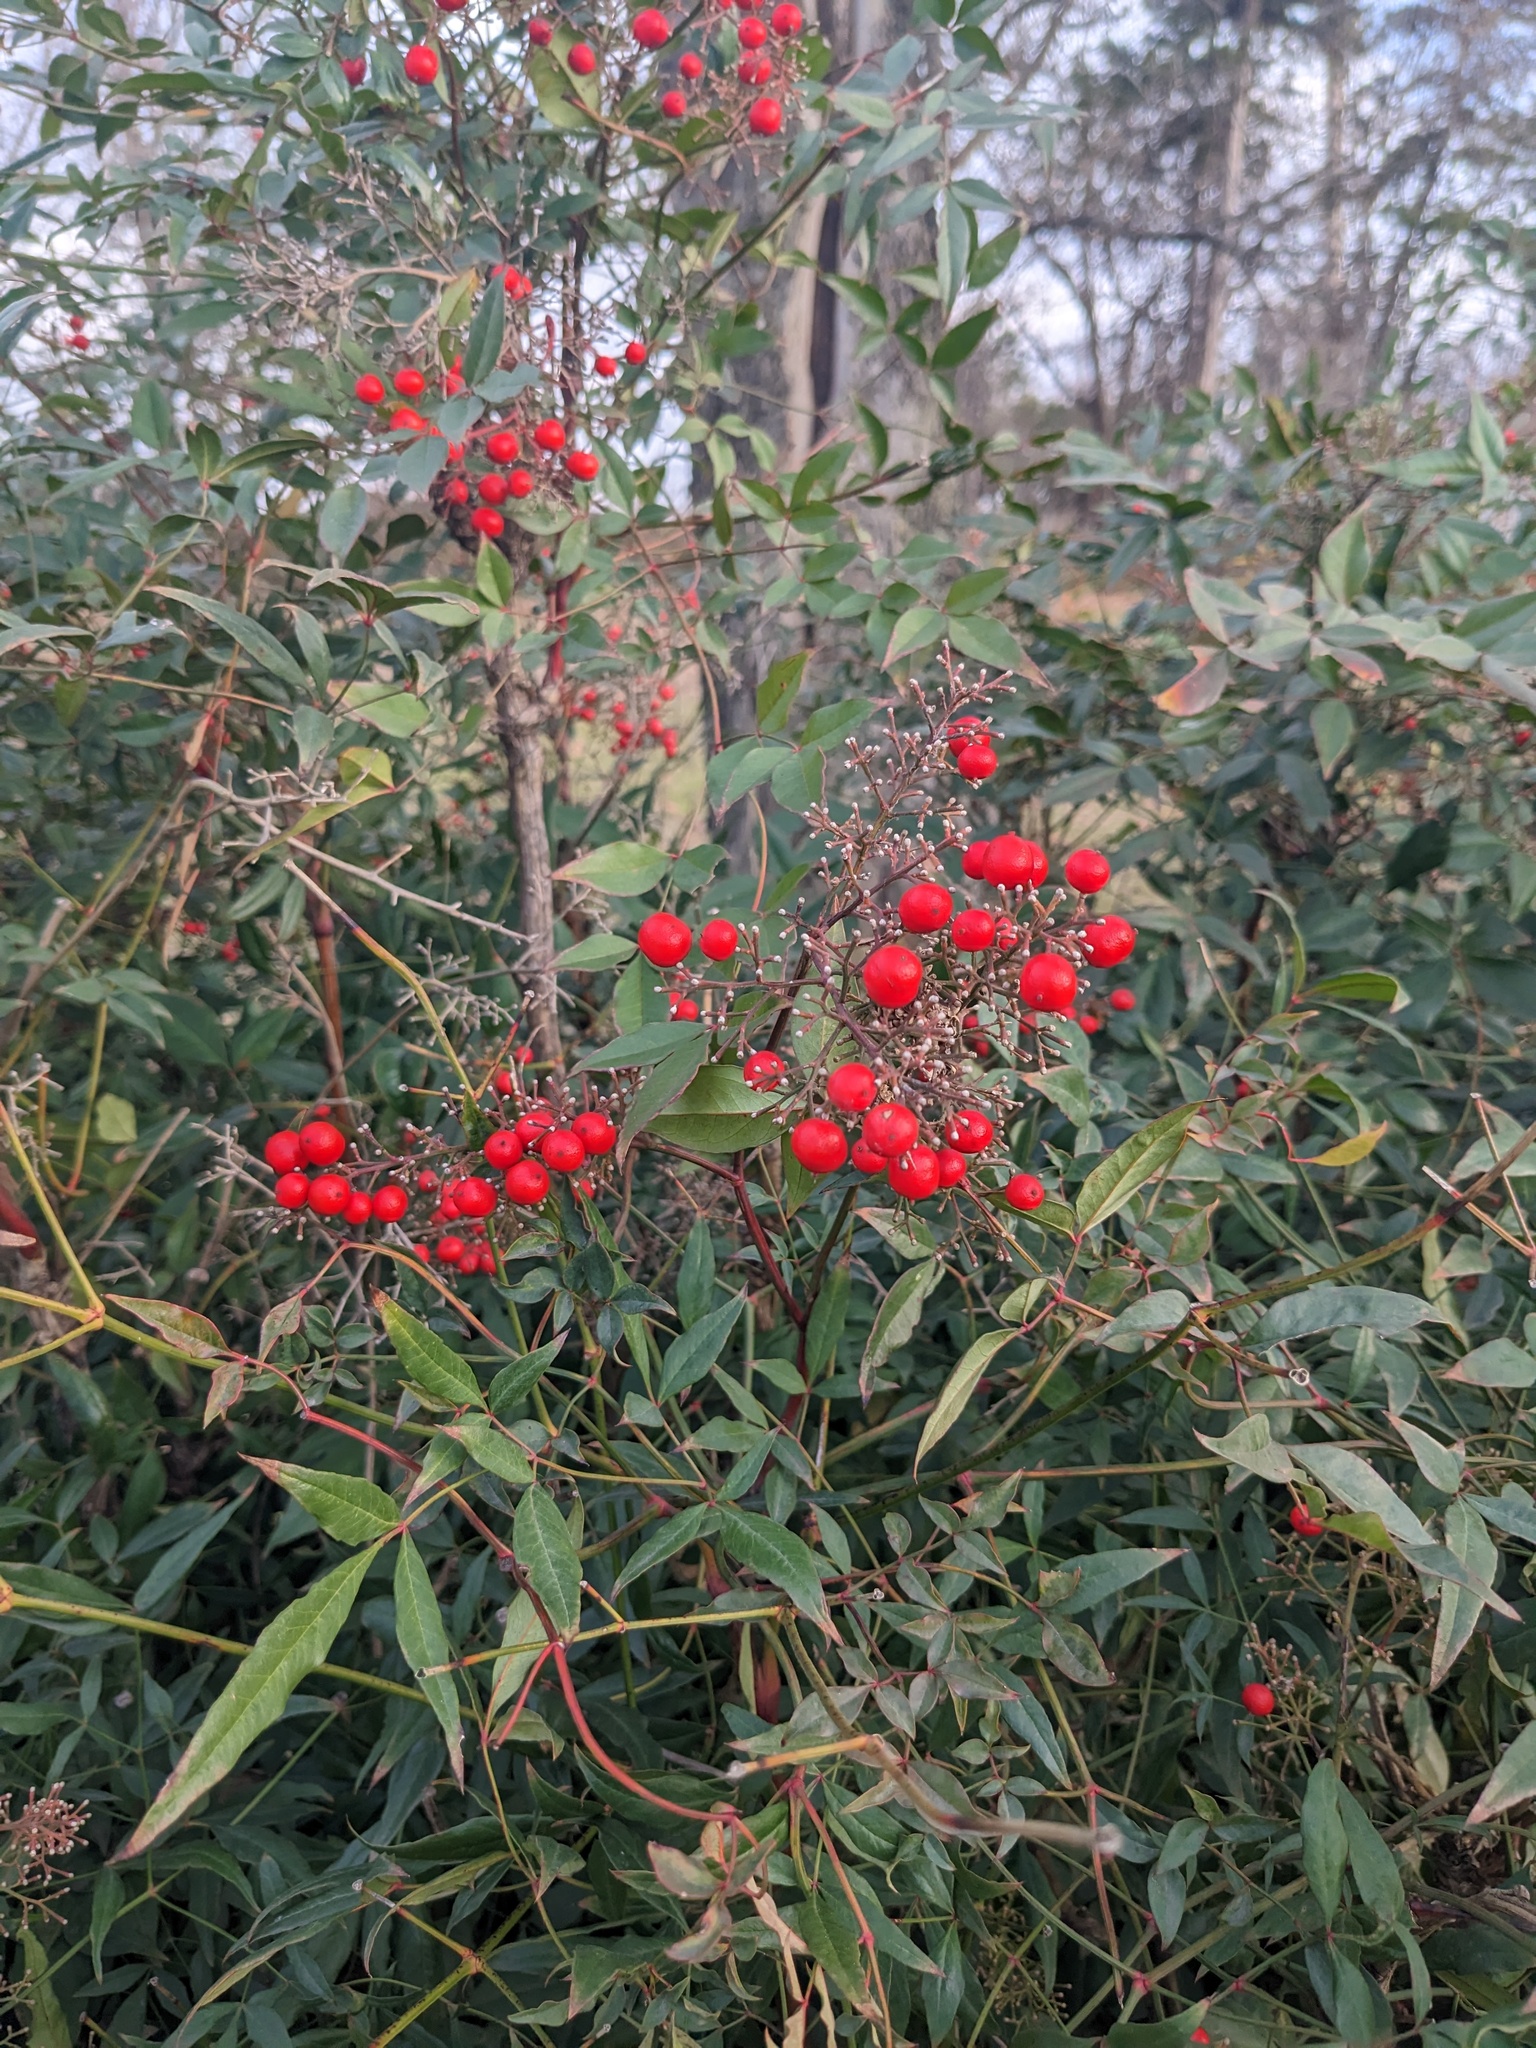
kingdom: Plantae
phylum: Tracheophyta
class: Magnoliopsida
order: Ranunculales
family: Berberidaceae
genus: Nandina
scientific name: Nandina domestica
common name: Sacred bamboo
